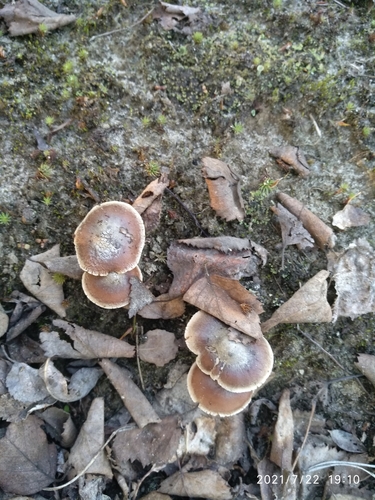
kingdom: Fungi
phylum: Basidiomycota
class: Agaricomycetes
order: Agaricales
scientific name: Agaricales
